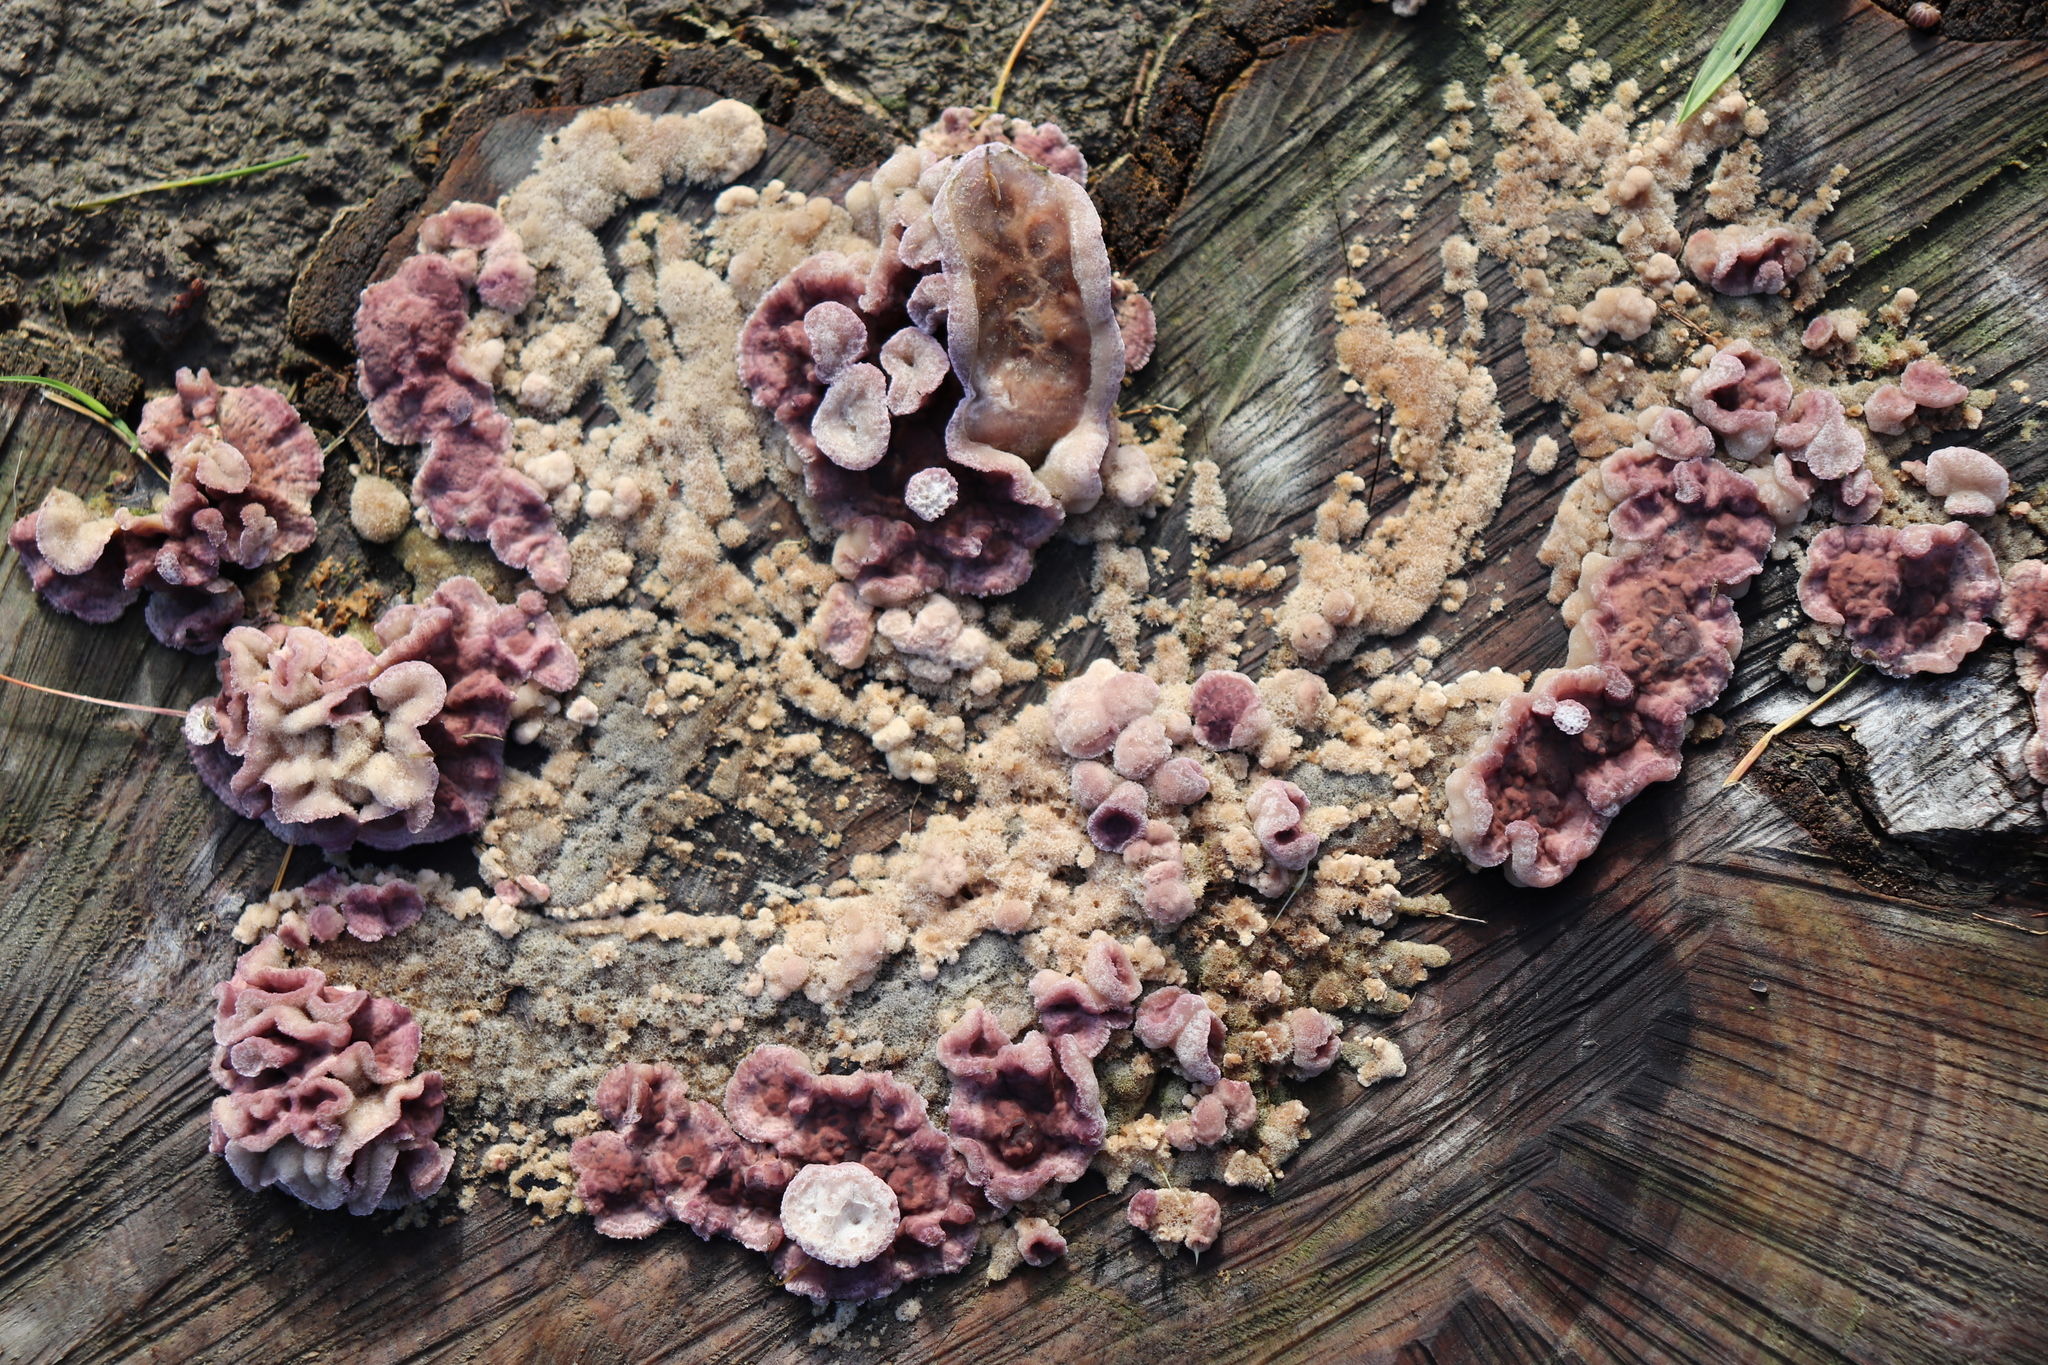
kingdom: Fungi
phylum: Basidiomycota
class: Agaricomycetes
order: Agaricales
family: Cyphellaceae
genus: Chondrostereum
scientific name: Chondrostereum purpureum
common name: Silver leaf disease
